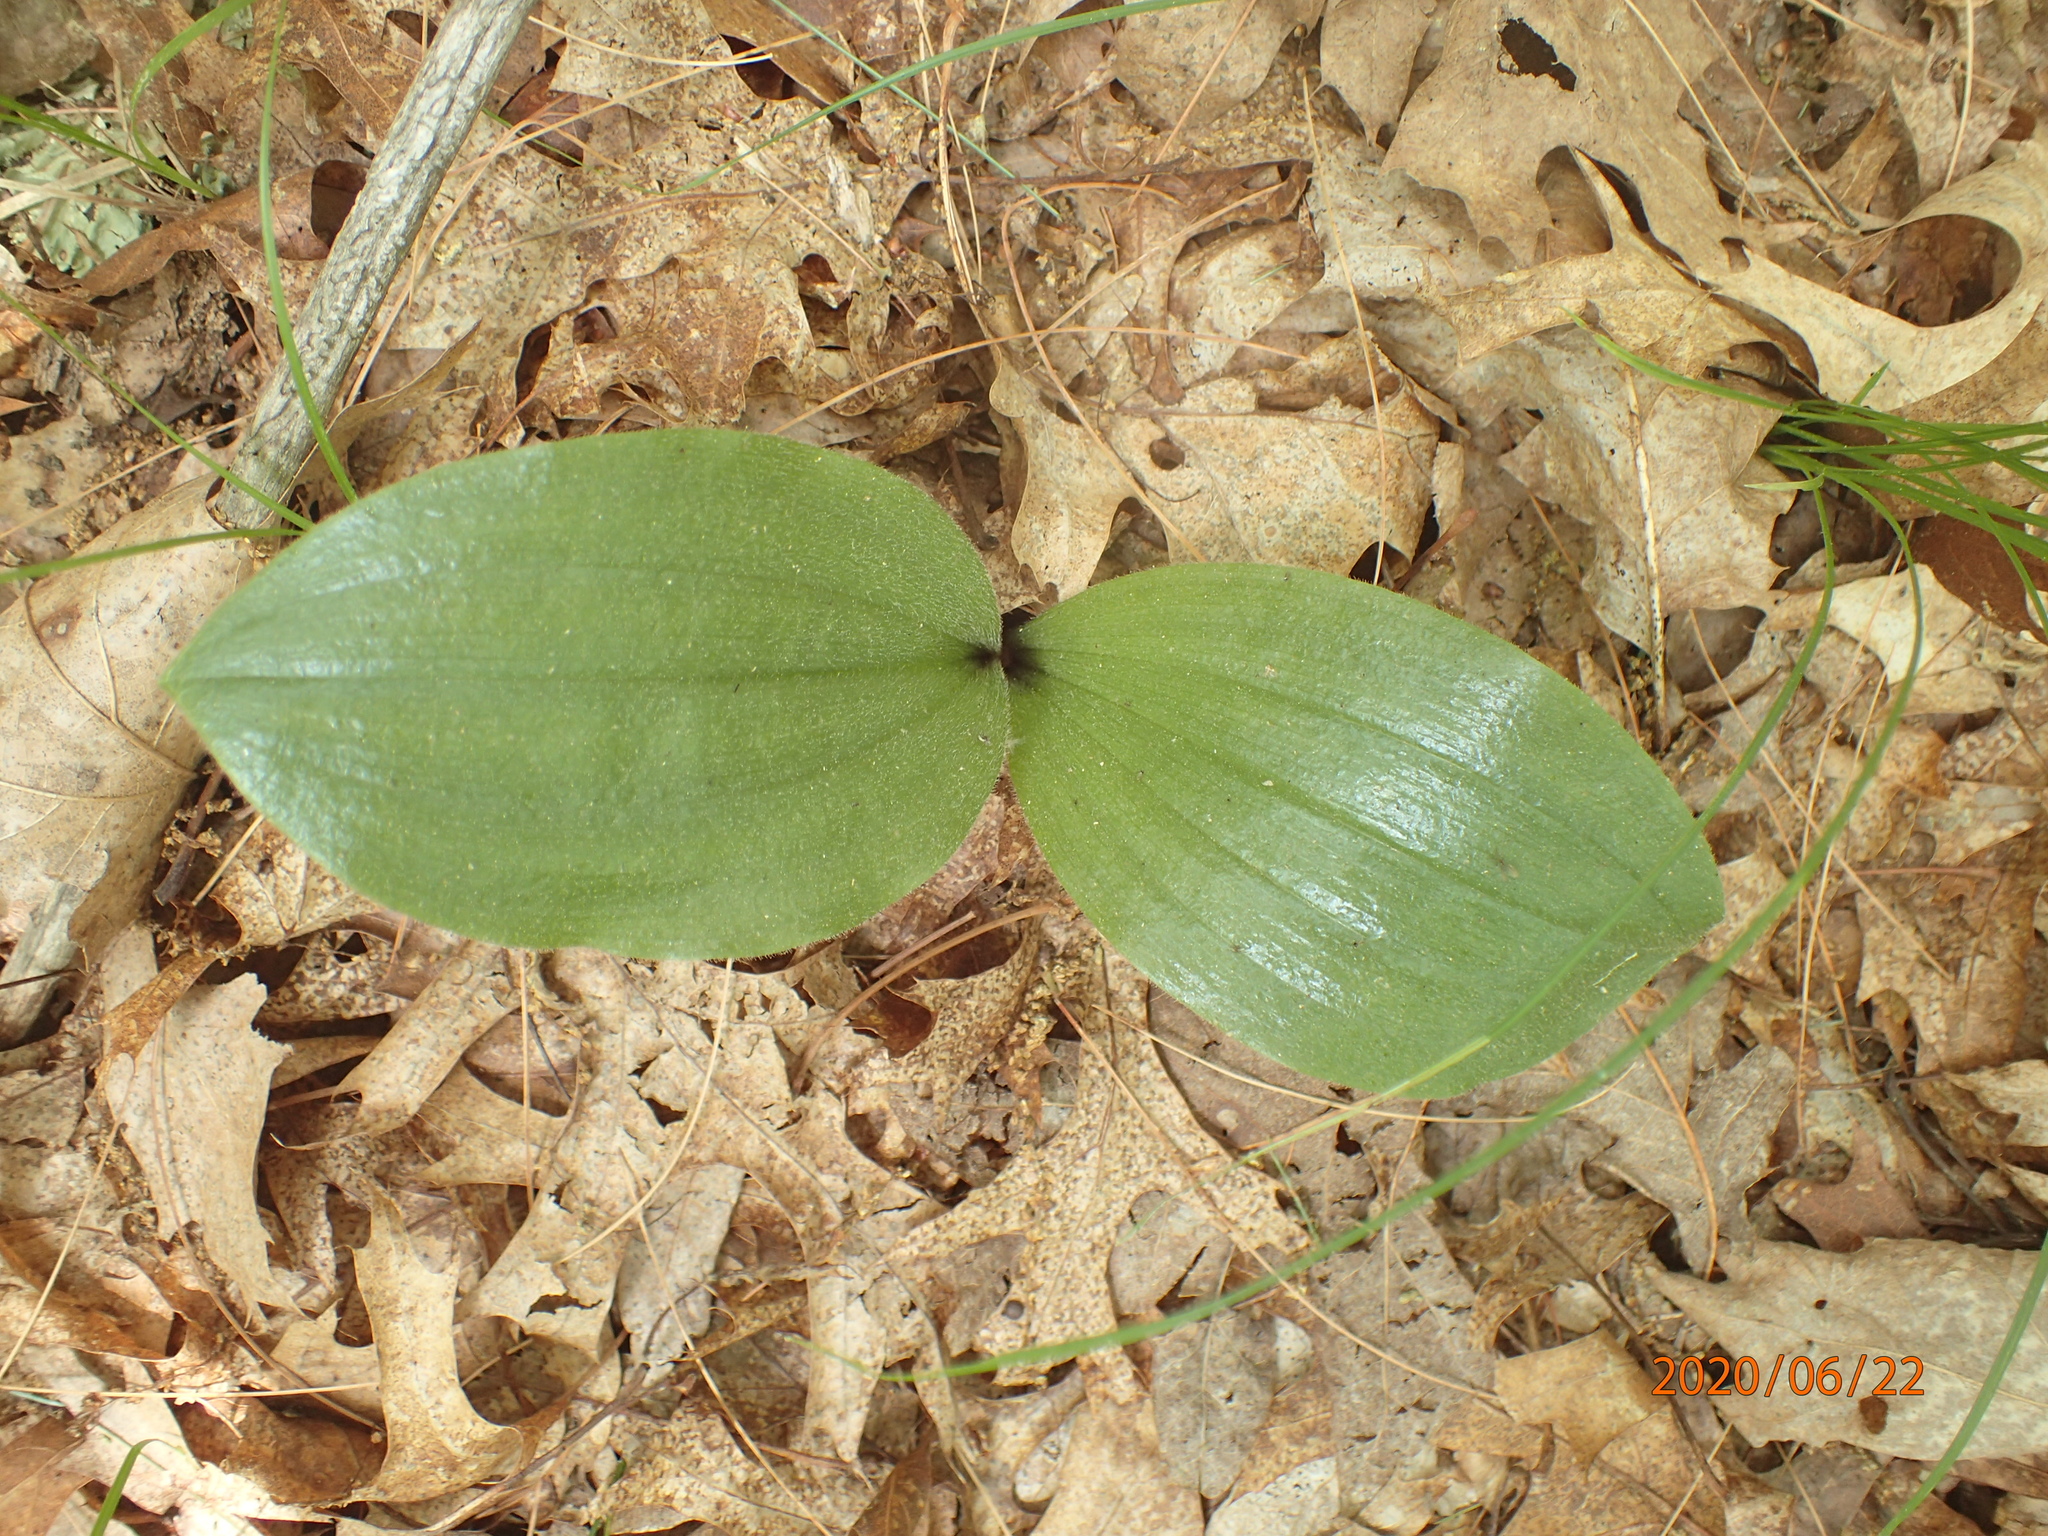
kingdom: Plantae
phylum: Tracheophyta
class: Liliopsida
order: Asparagales
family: Orchidaceae
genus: Cypripedium
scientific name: Cypripedium acaule
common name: Pink lady's-slipper
